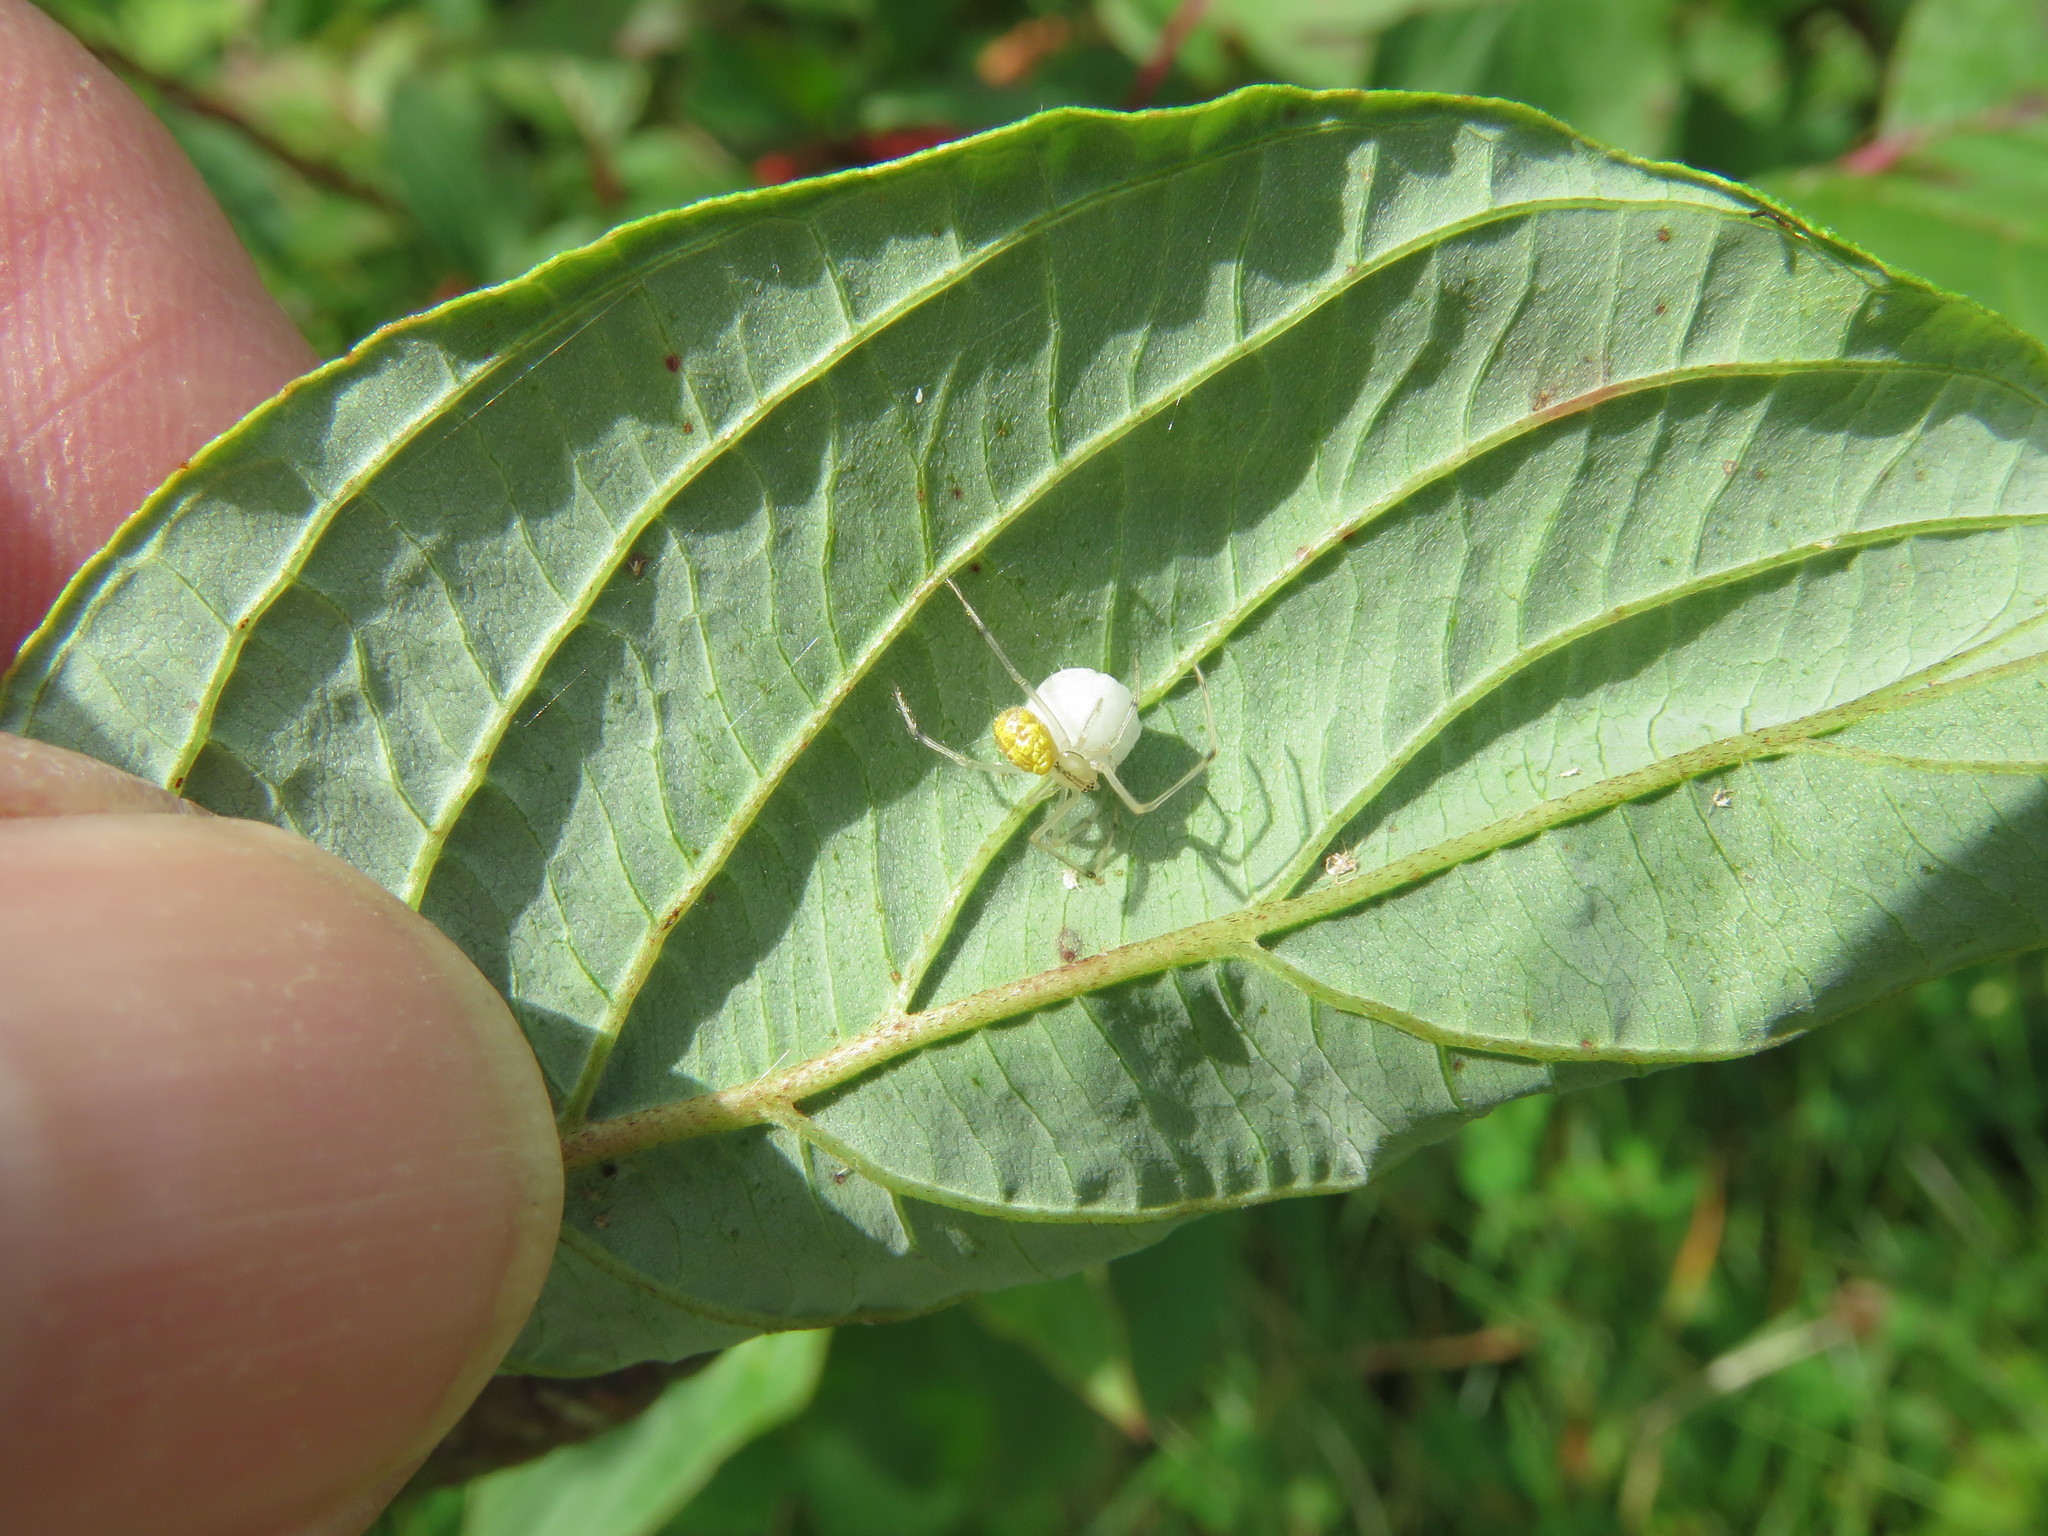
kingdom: Animalia
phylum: Arthropoda
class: Arachnida
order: Araneae
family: Theridiidae
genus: Enoplognatha
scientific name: Enoplognatha ovata
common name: Common candy-striped spider
